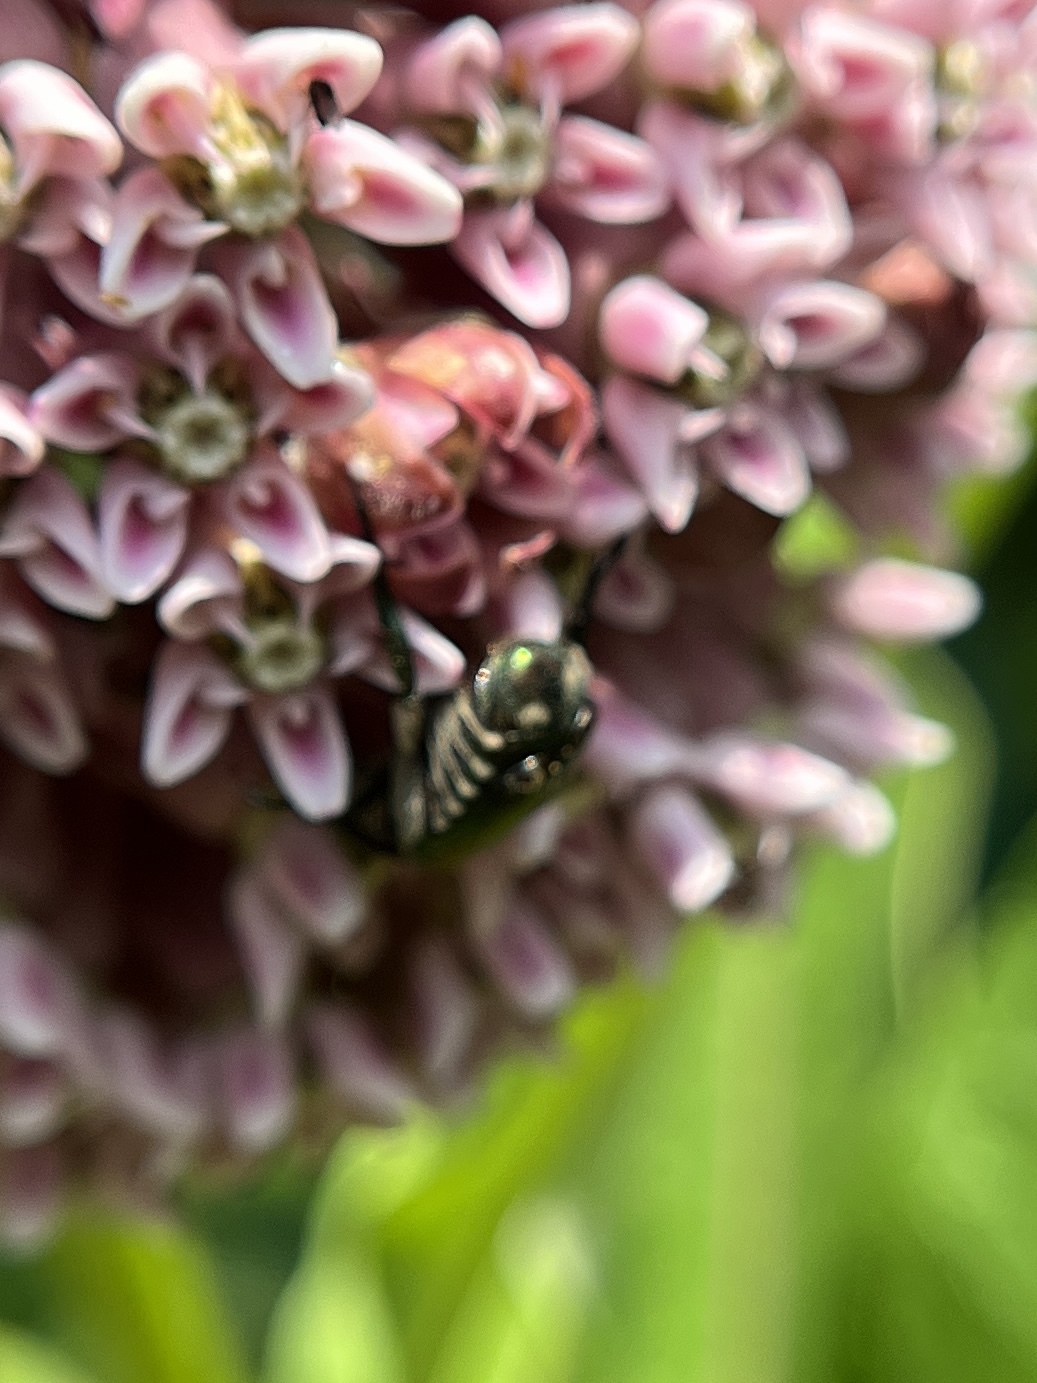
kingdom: Animalia
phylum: Arthropoda
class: Insecta
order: Coleoptera
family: Scarabaeidae
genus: Popillia
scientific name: Popillia japonica
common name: Japanese beetle
